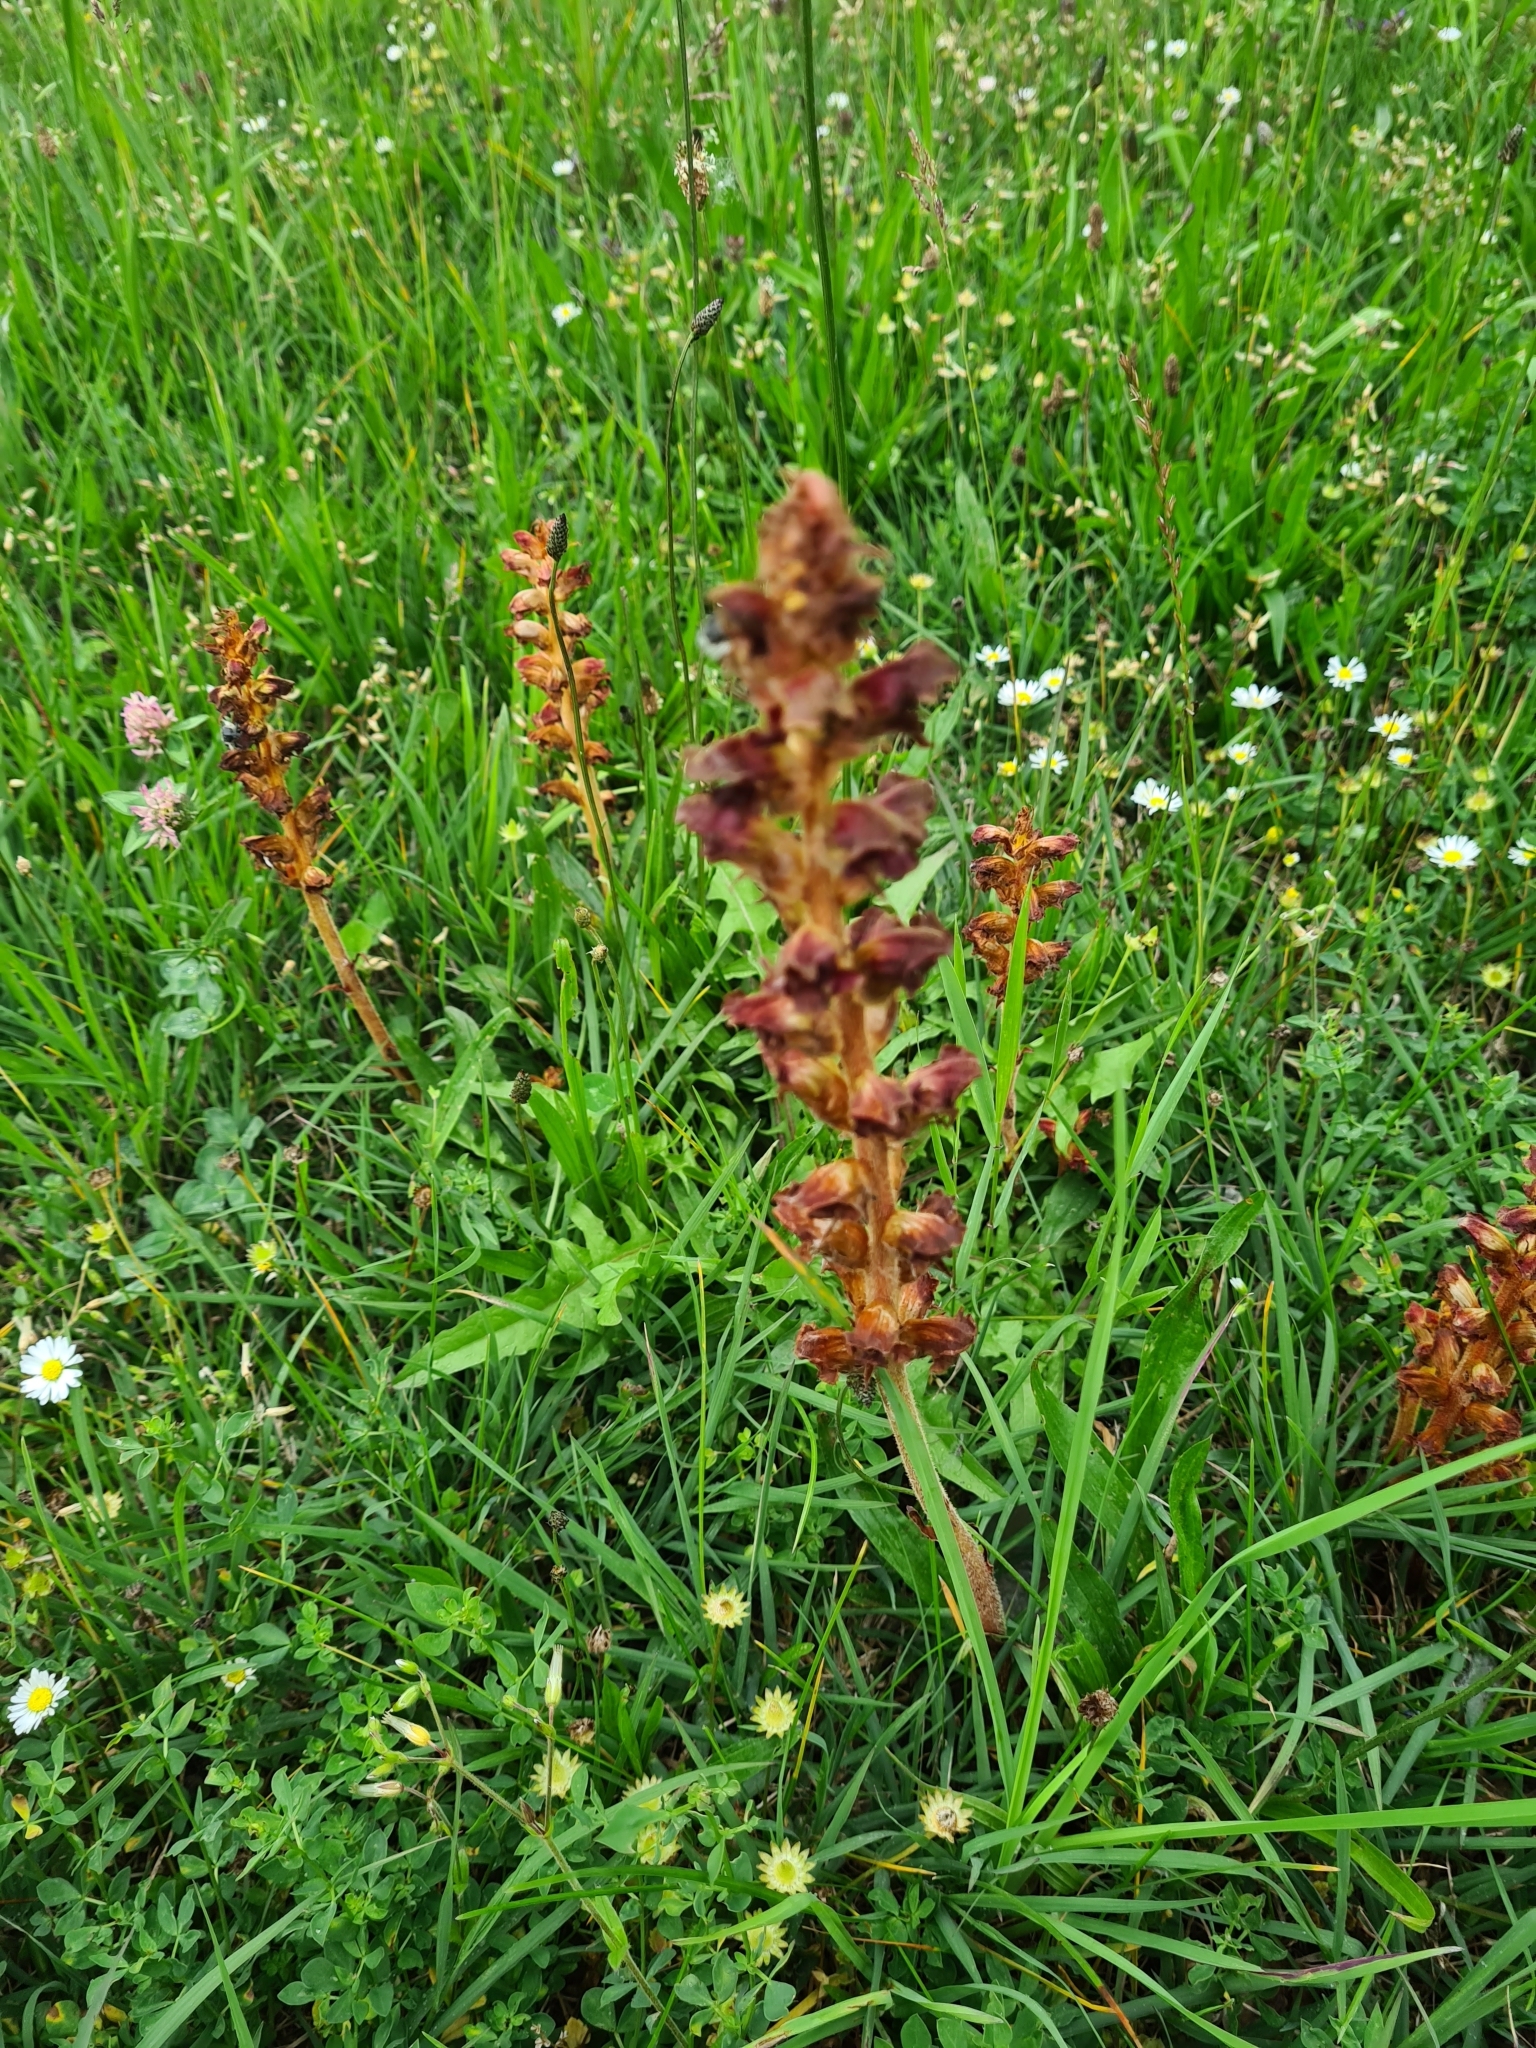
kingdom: Plantae
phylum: Tracheophyta
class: Magnoliopsida
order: Lamiales
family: Orobanchaceae
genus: Orobanche
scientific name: Orobanche gracilis
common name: Slender broomrape
